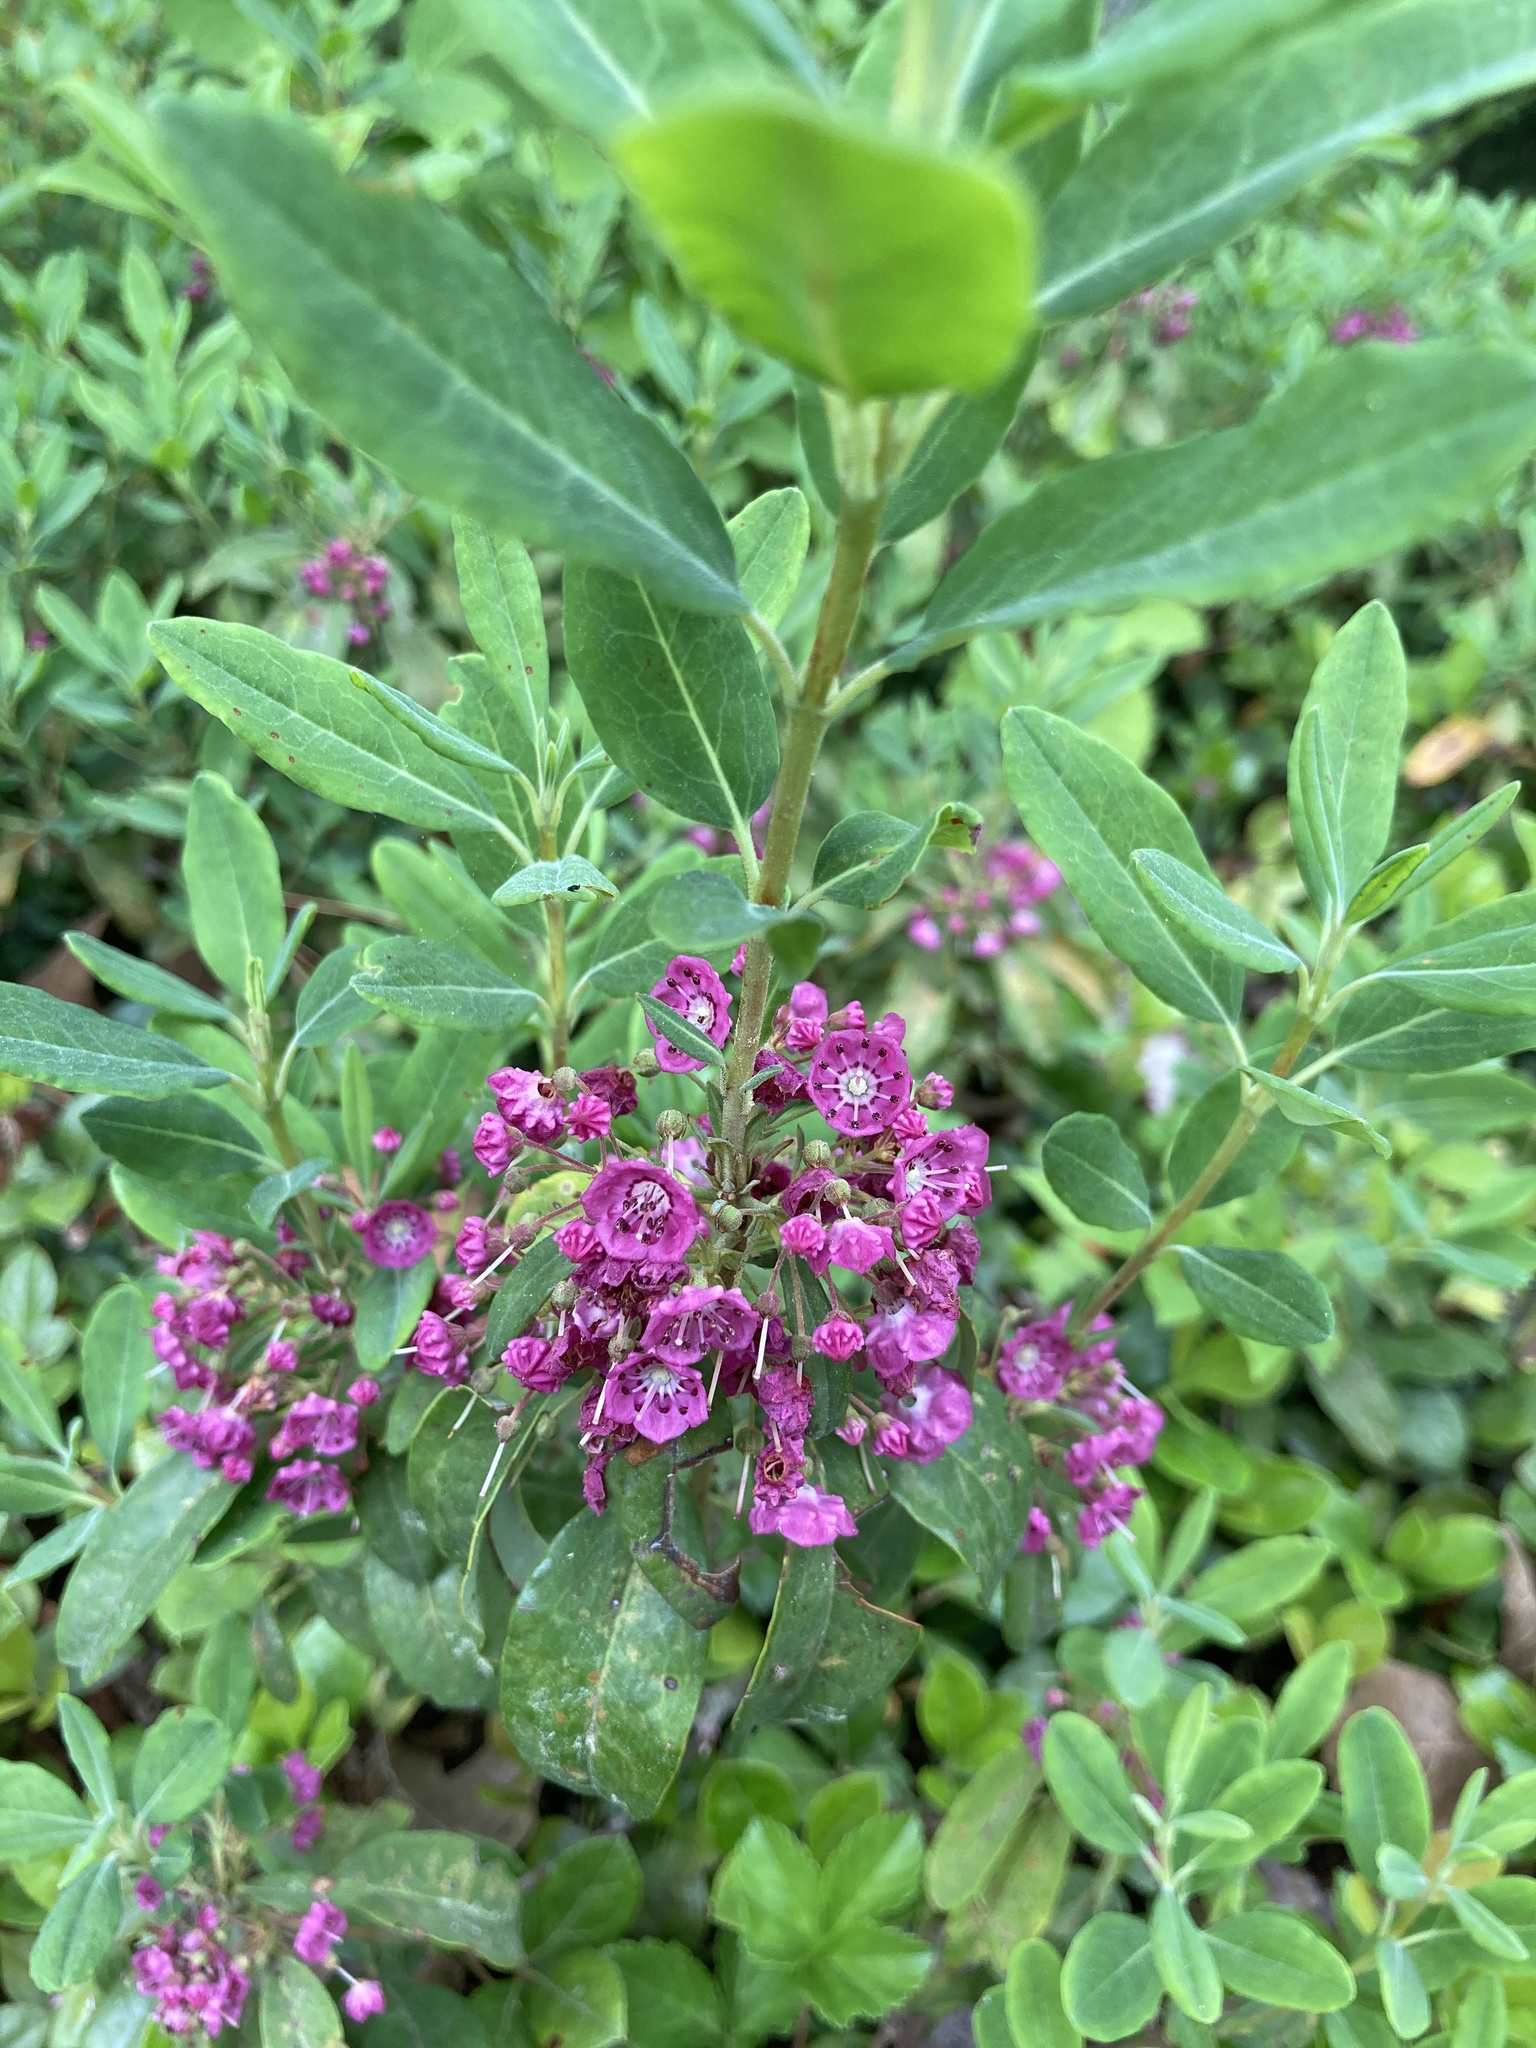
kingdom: Plantae
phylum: Tracheophyta
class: Magnoliopsida
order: Ericales
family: Ericaceae
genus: Kalmia
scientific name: Kalmia angustifolia
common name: Sheep-laurel
